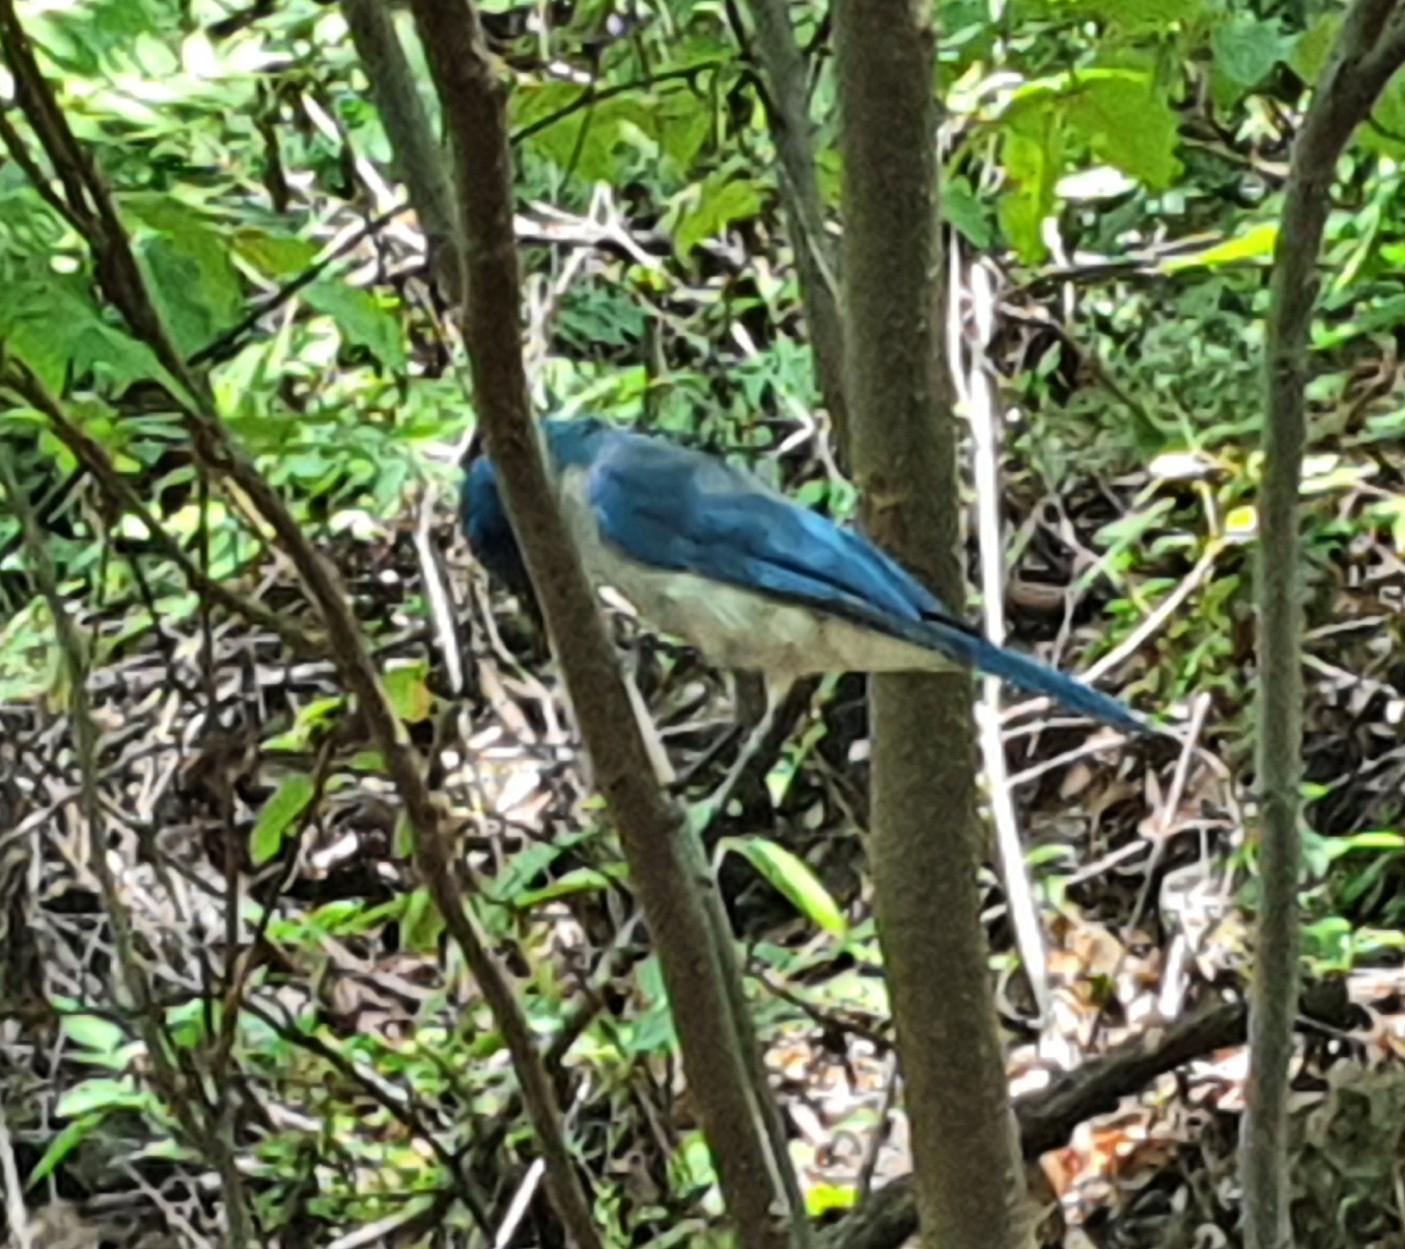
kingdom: Animalia
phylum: Chordata
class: Aves
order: Passeriformes
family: Corvidae
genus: Aphelocoma
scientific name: Aphelocoma wollweberi
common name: Mexican jay
